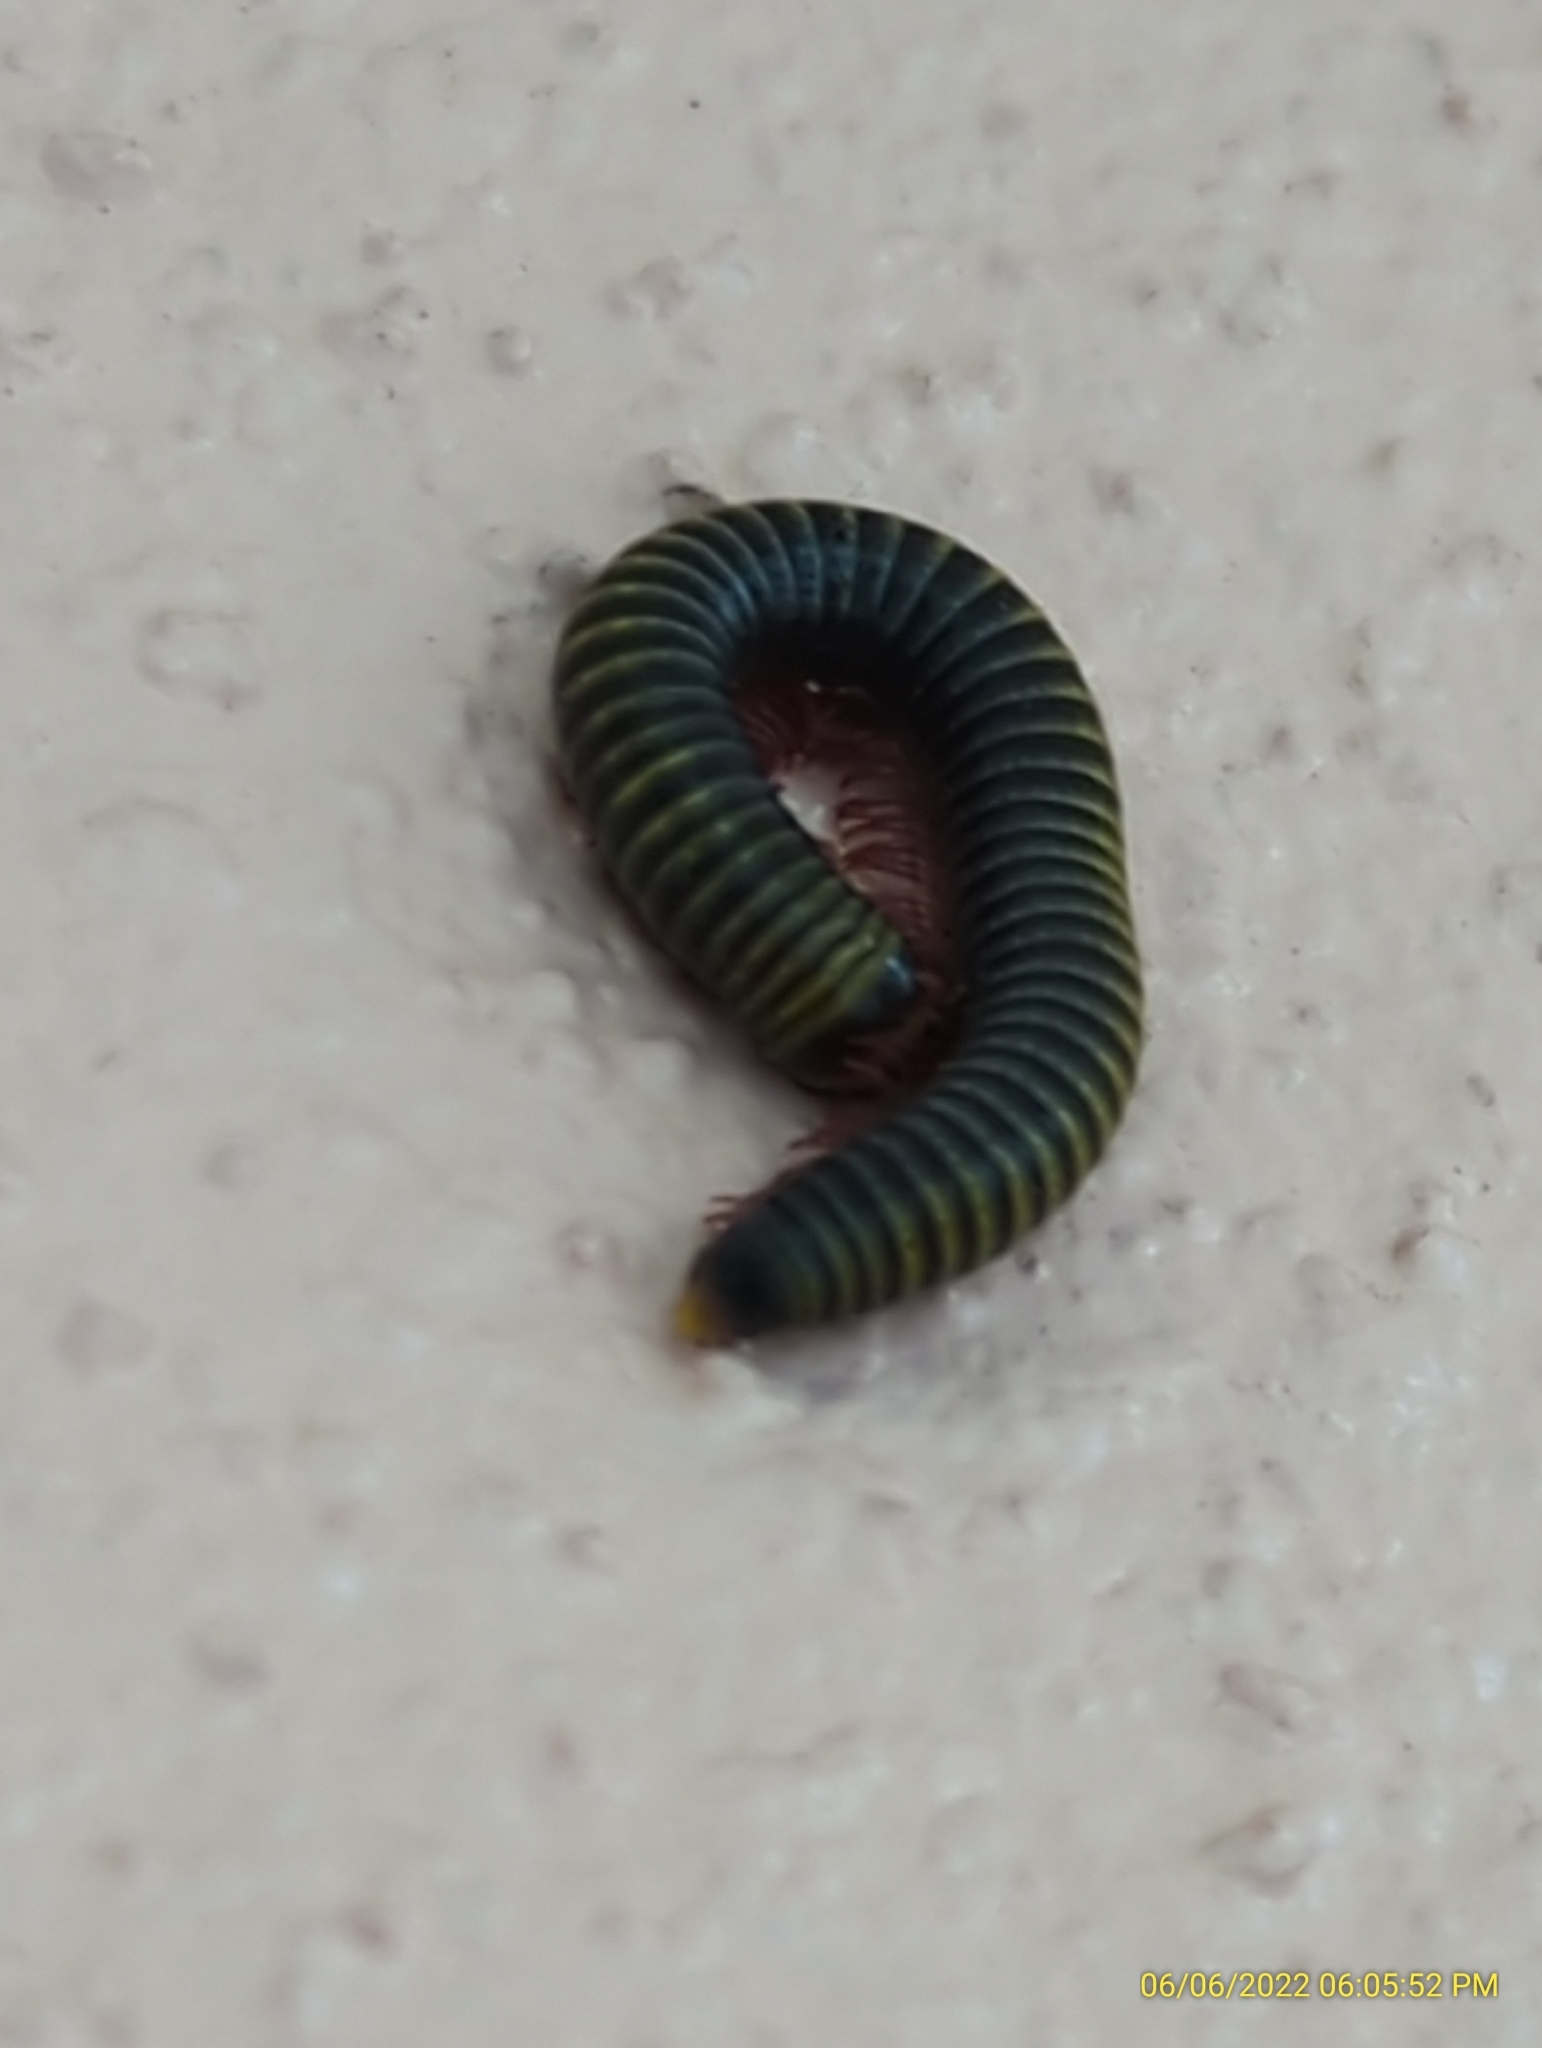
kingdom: Animalia
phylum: Arthropoda
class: Diplopoda
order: Spirobolida
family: Rhinocricidae
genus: Anadenobolus
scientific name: Anadenobolus monilicornis
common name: Caribbean millipede
